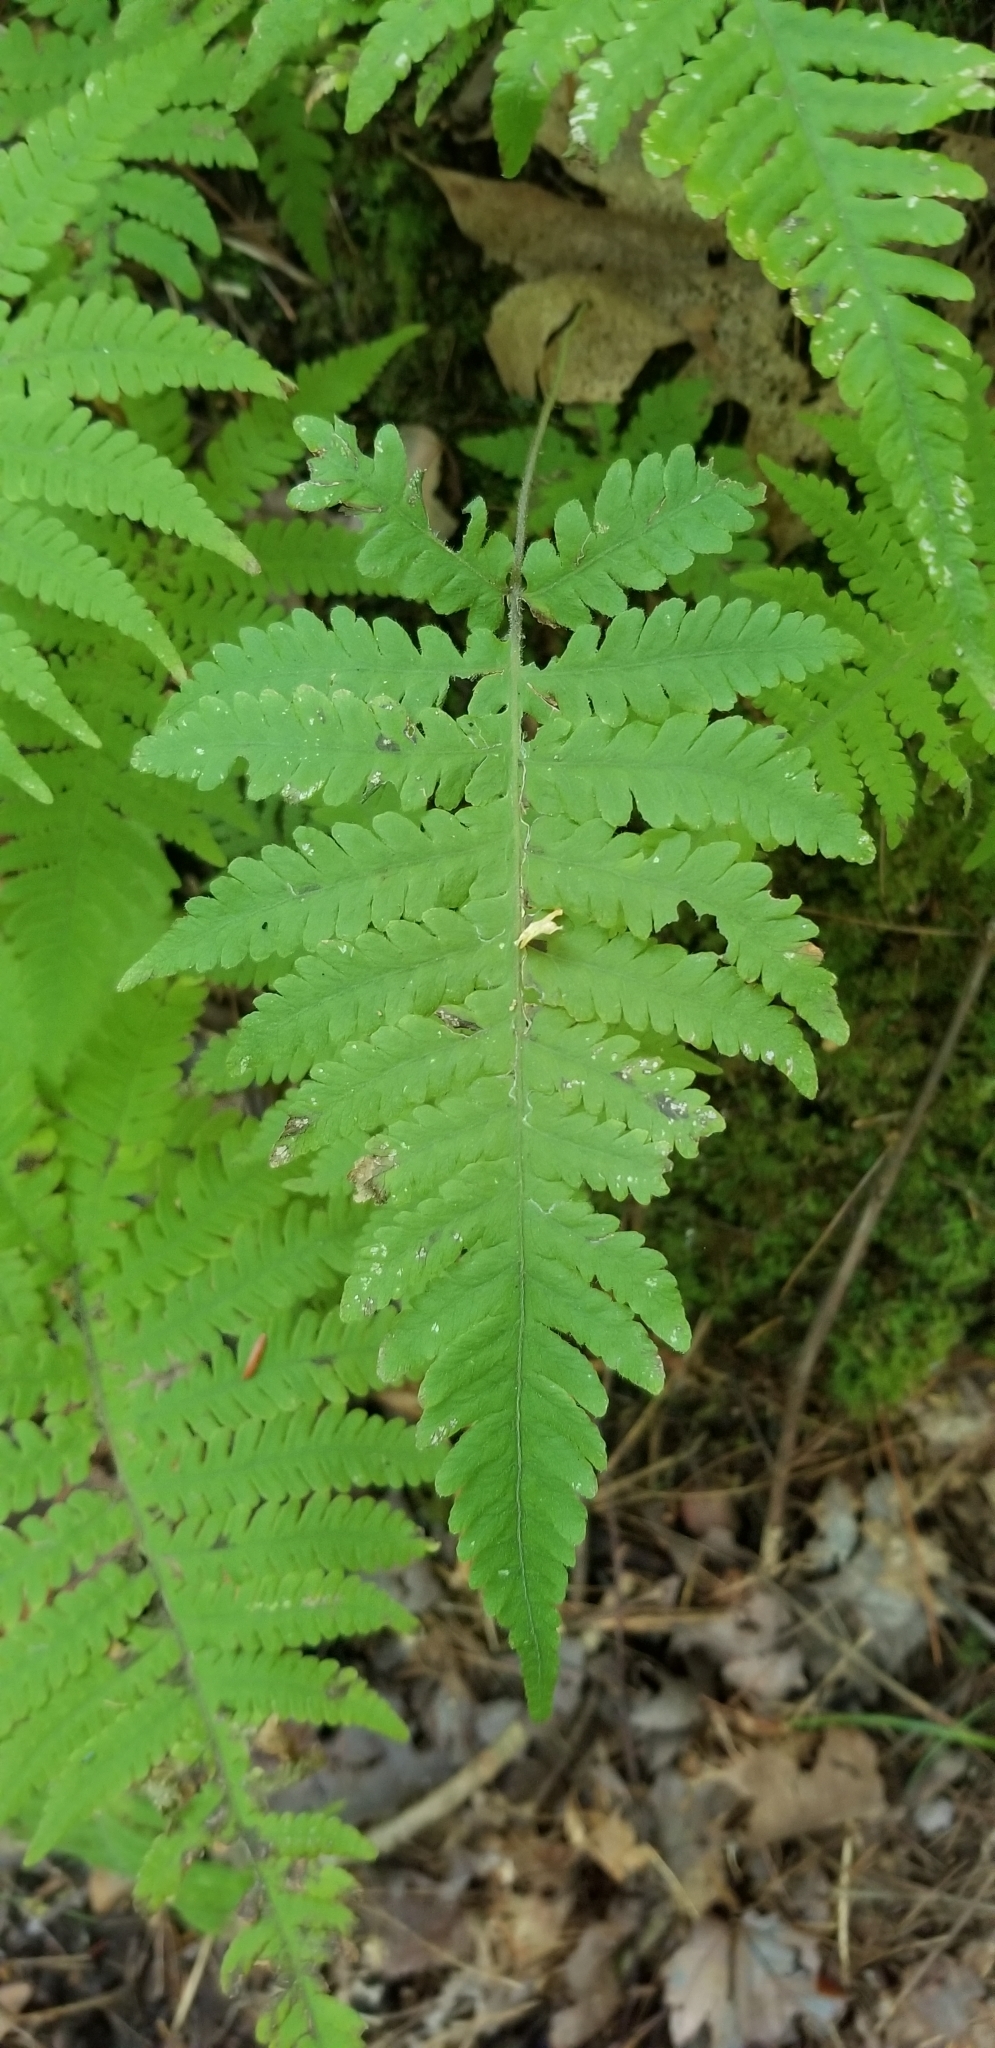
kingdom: Plantae
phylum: Tracheophyta
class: Polypodiopsida
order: Polypodiales
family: Thelypteridaceae
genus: Phegopteris
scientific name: Phegopteris connectilis
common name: Beech fern
